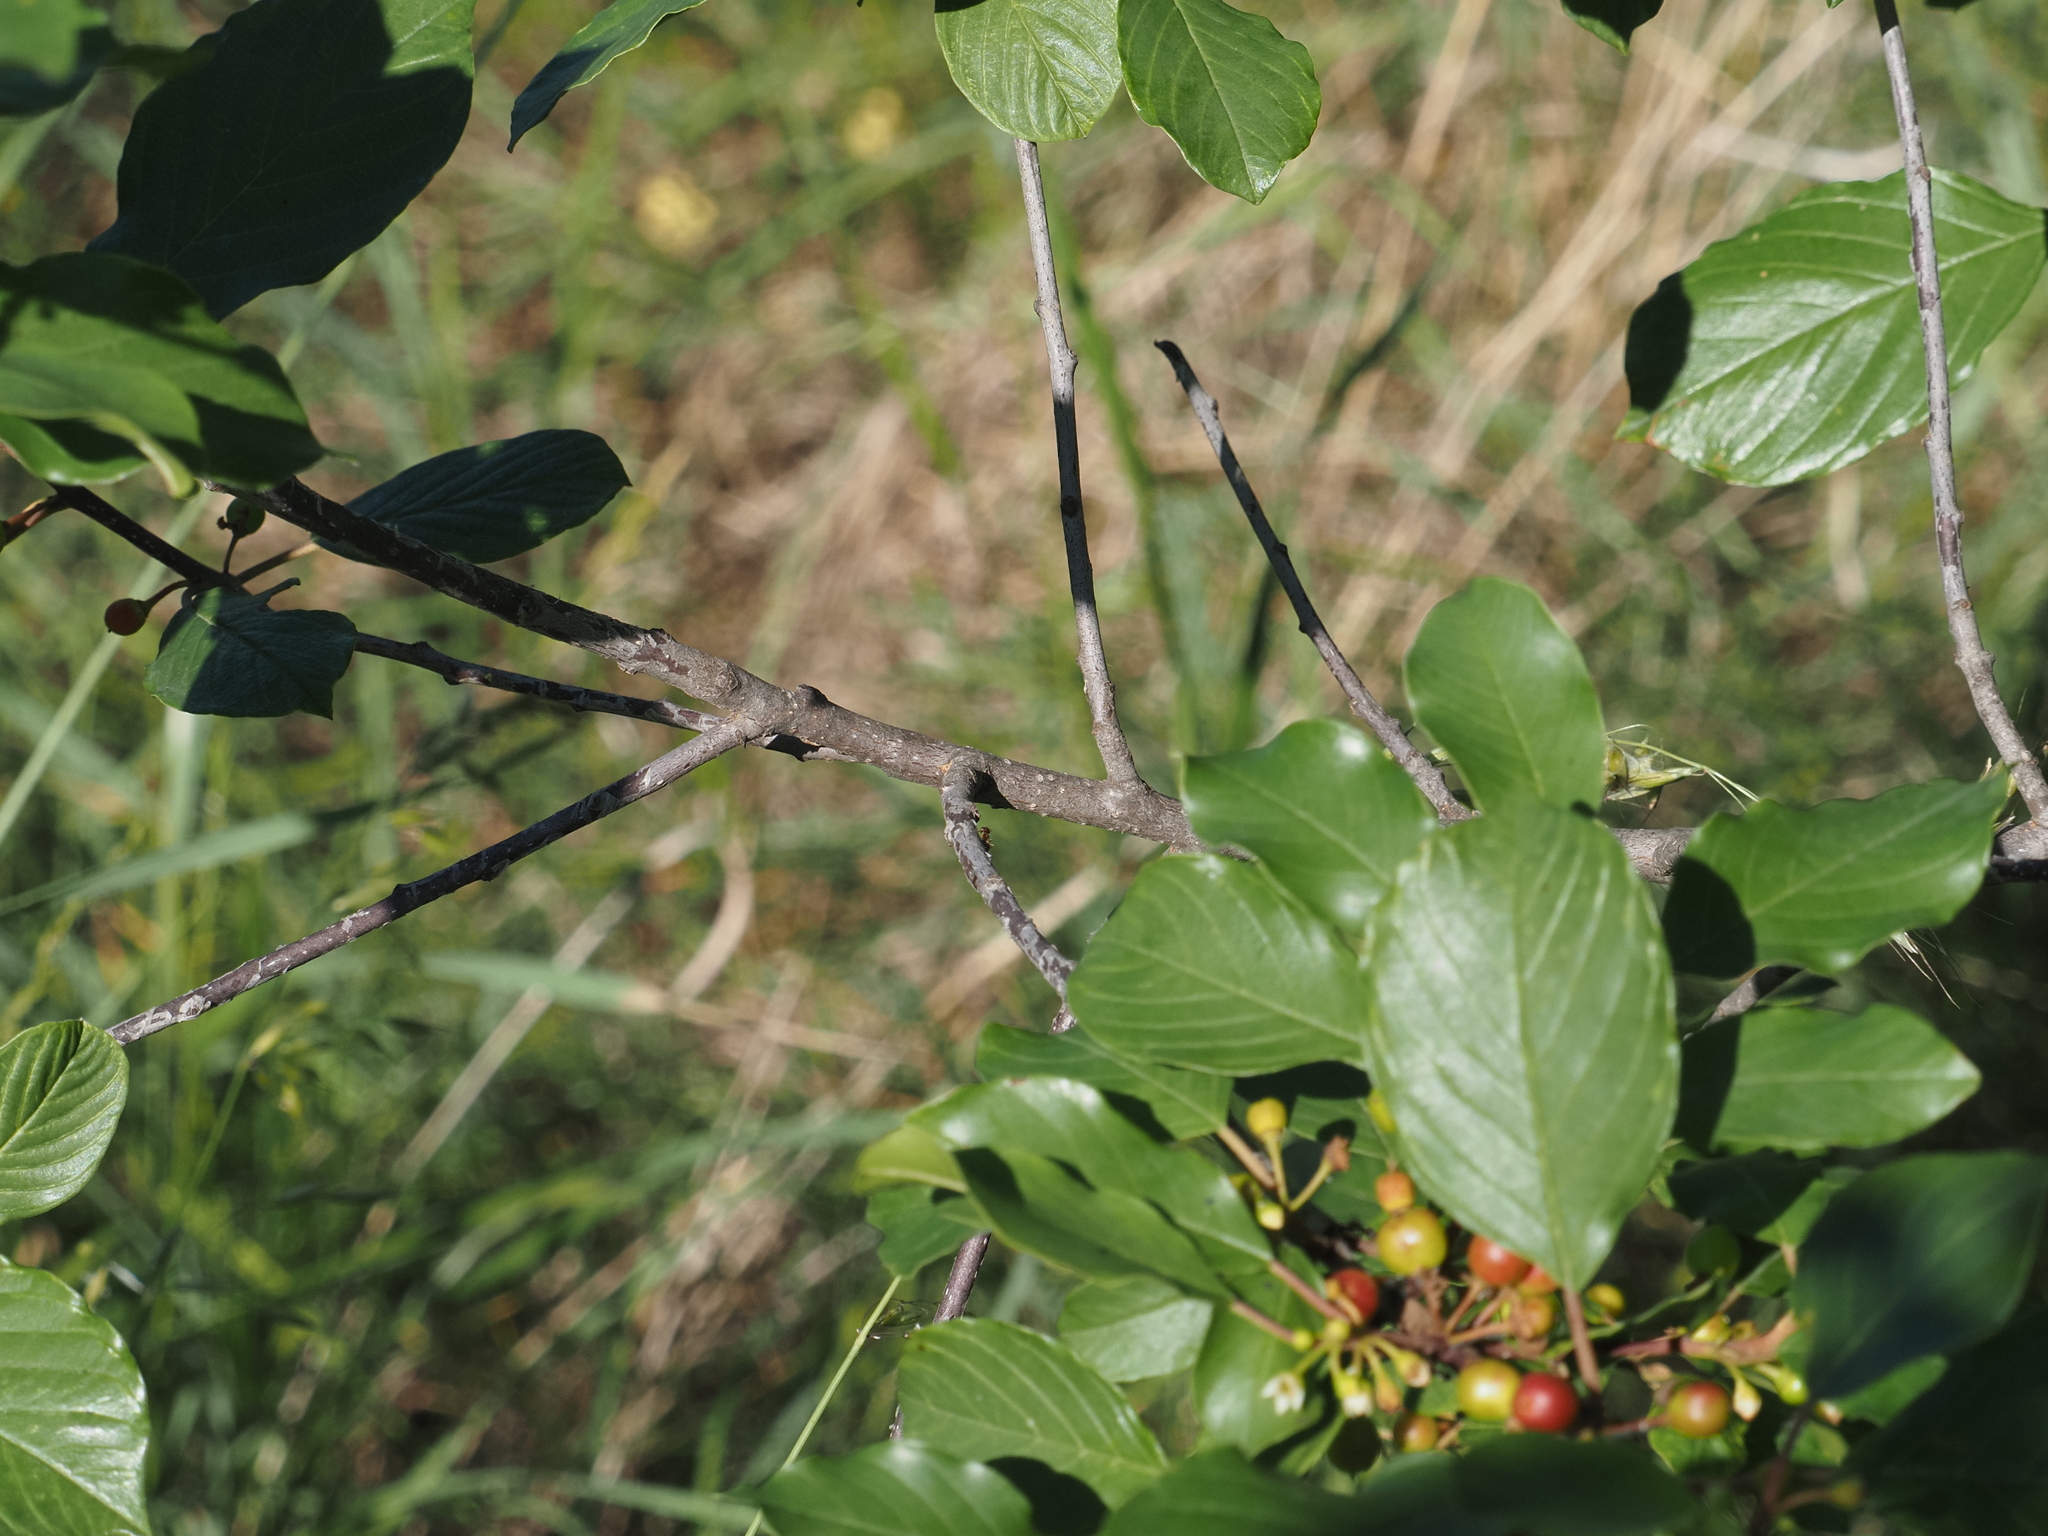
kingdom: Plantae
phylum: Tracheophyta
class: Magnoliopsida
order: Rosales
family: Rhamnaceae
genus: Frangula
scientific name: Frangula alnus
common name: Alder buckthorn
